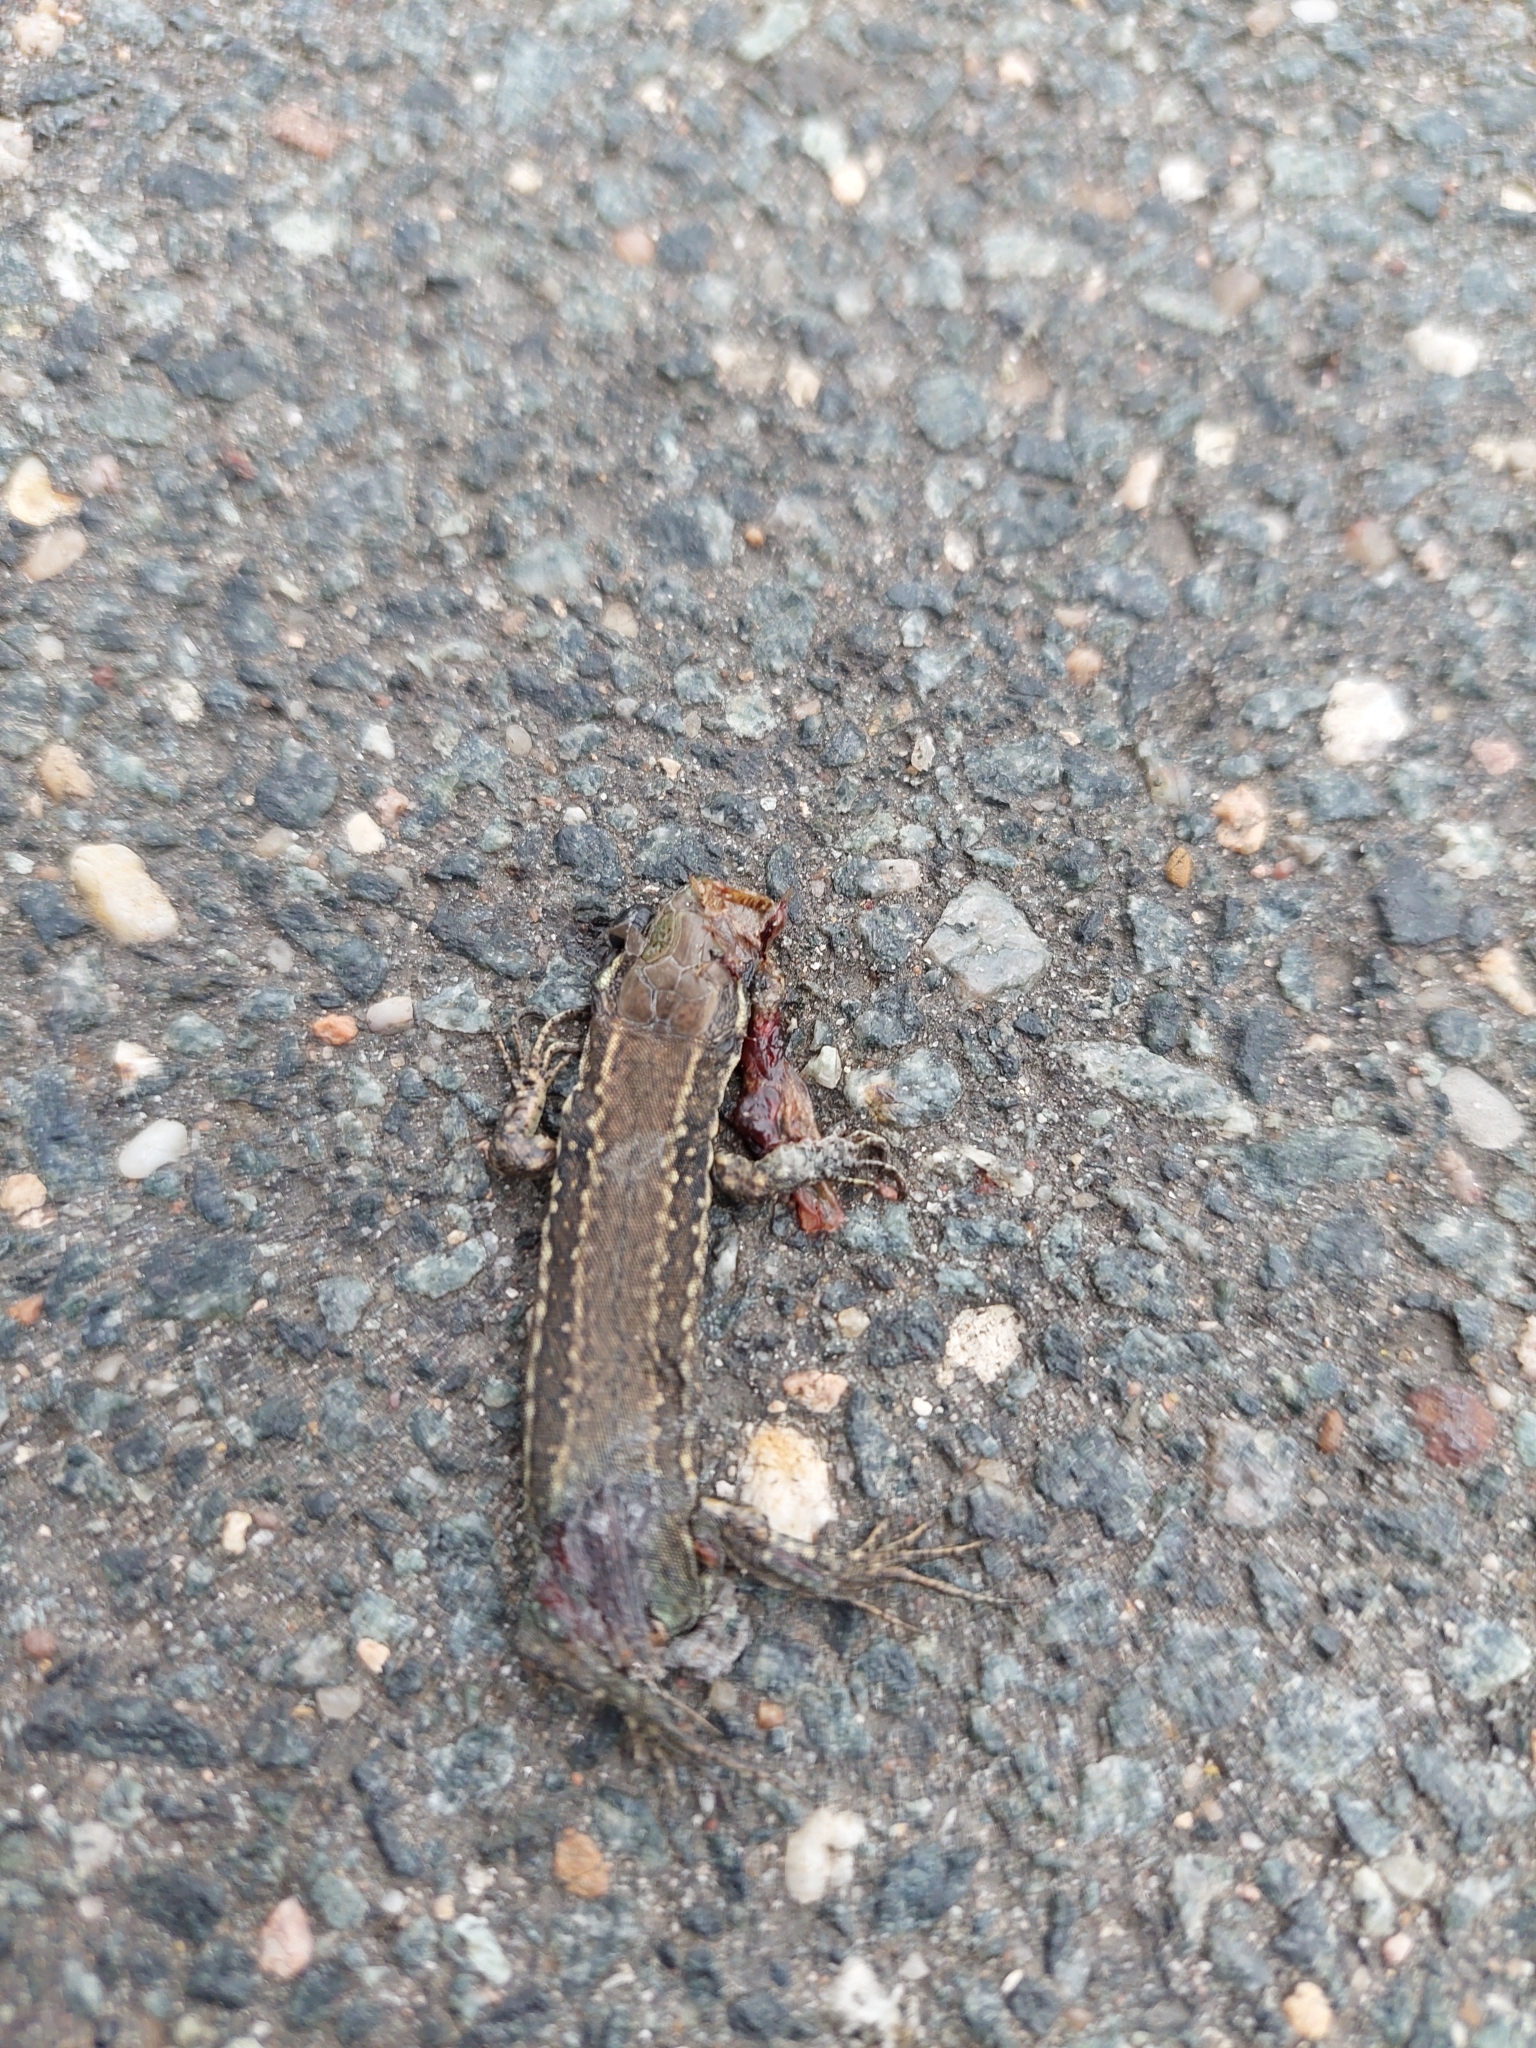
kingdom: Animalia
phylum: Chordata
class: Squamata
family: Lacertidae
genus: Podarcis
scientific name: Podarcis muralis
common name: Common wall lizard
